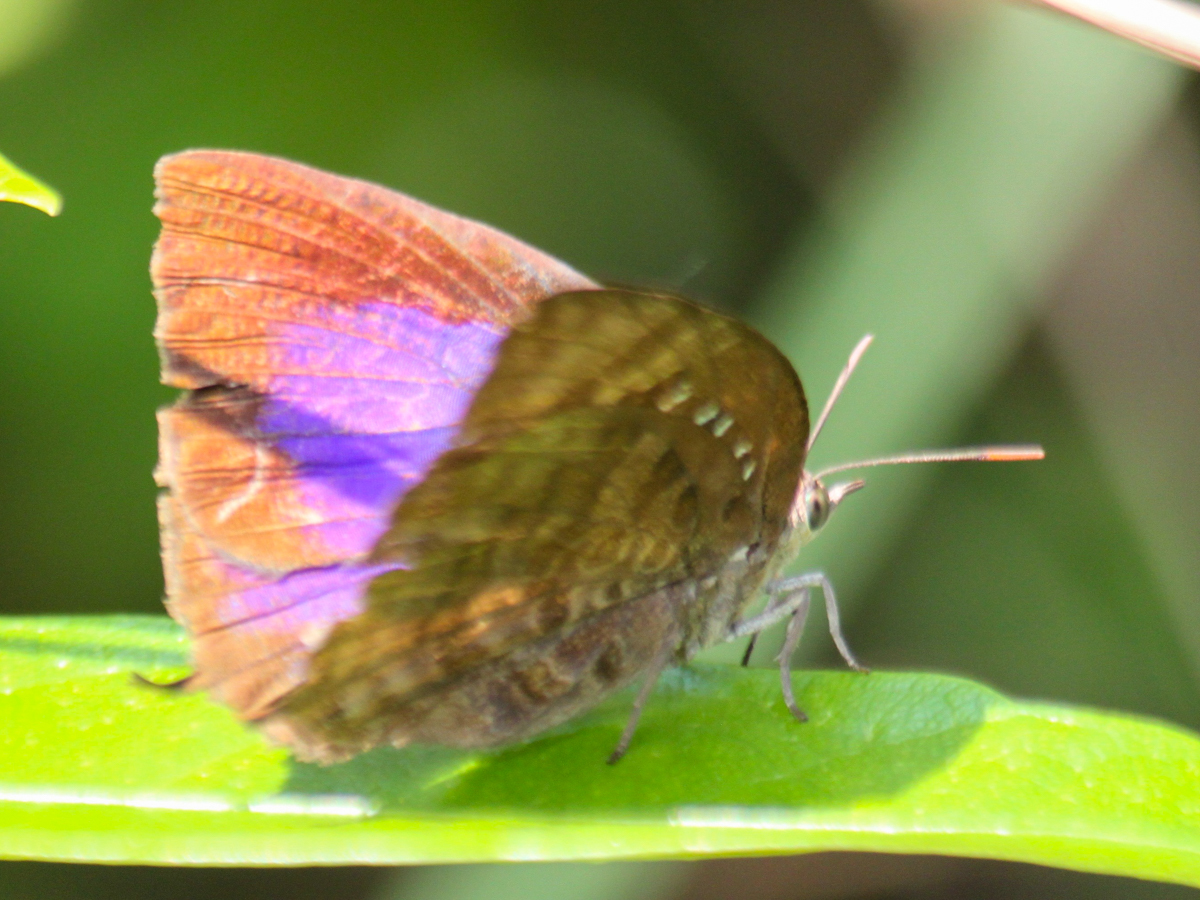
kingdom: Animalia
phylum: Arthropoda
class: Insecta
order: Lepidoptera
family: Lycaenidae
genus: Arhopala
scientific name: Arhopala centaurus
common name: Dull oak-blue
